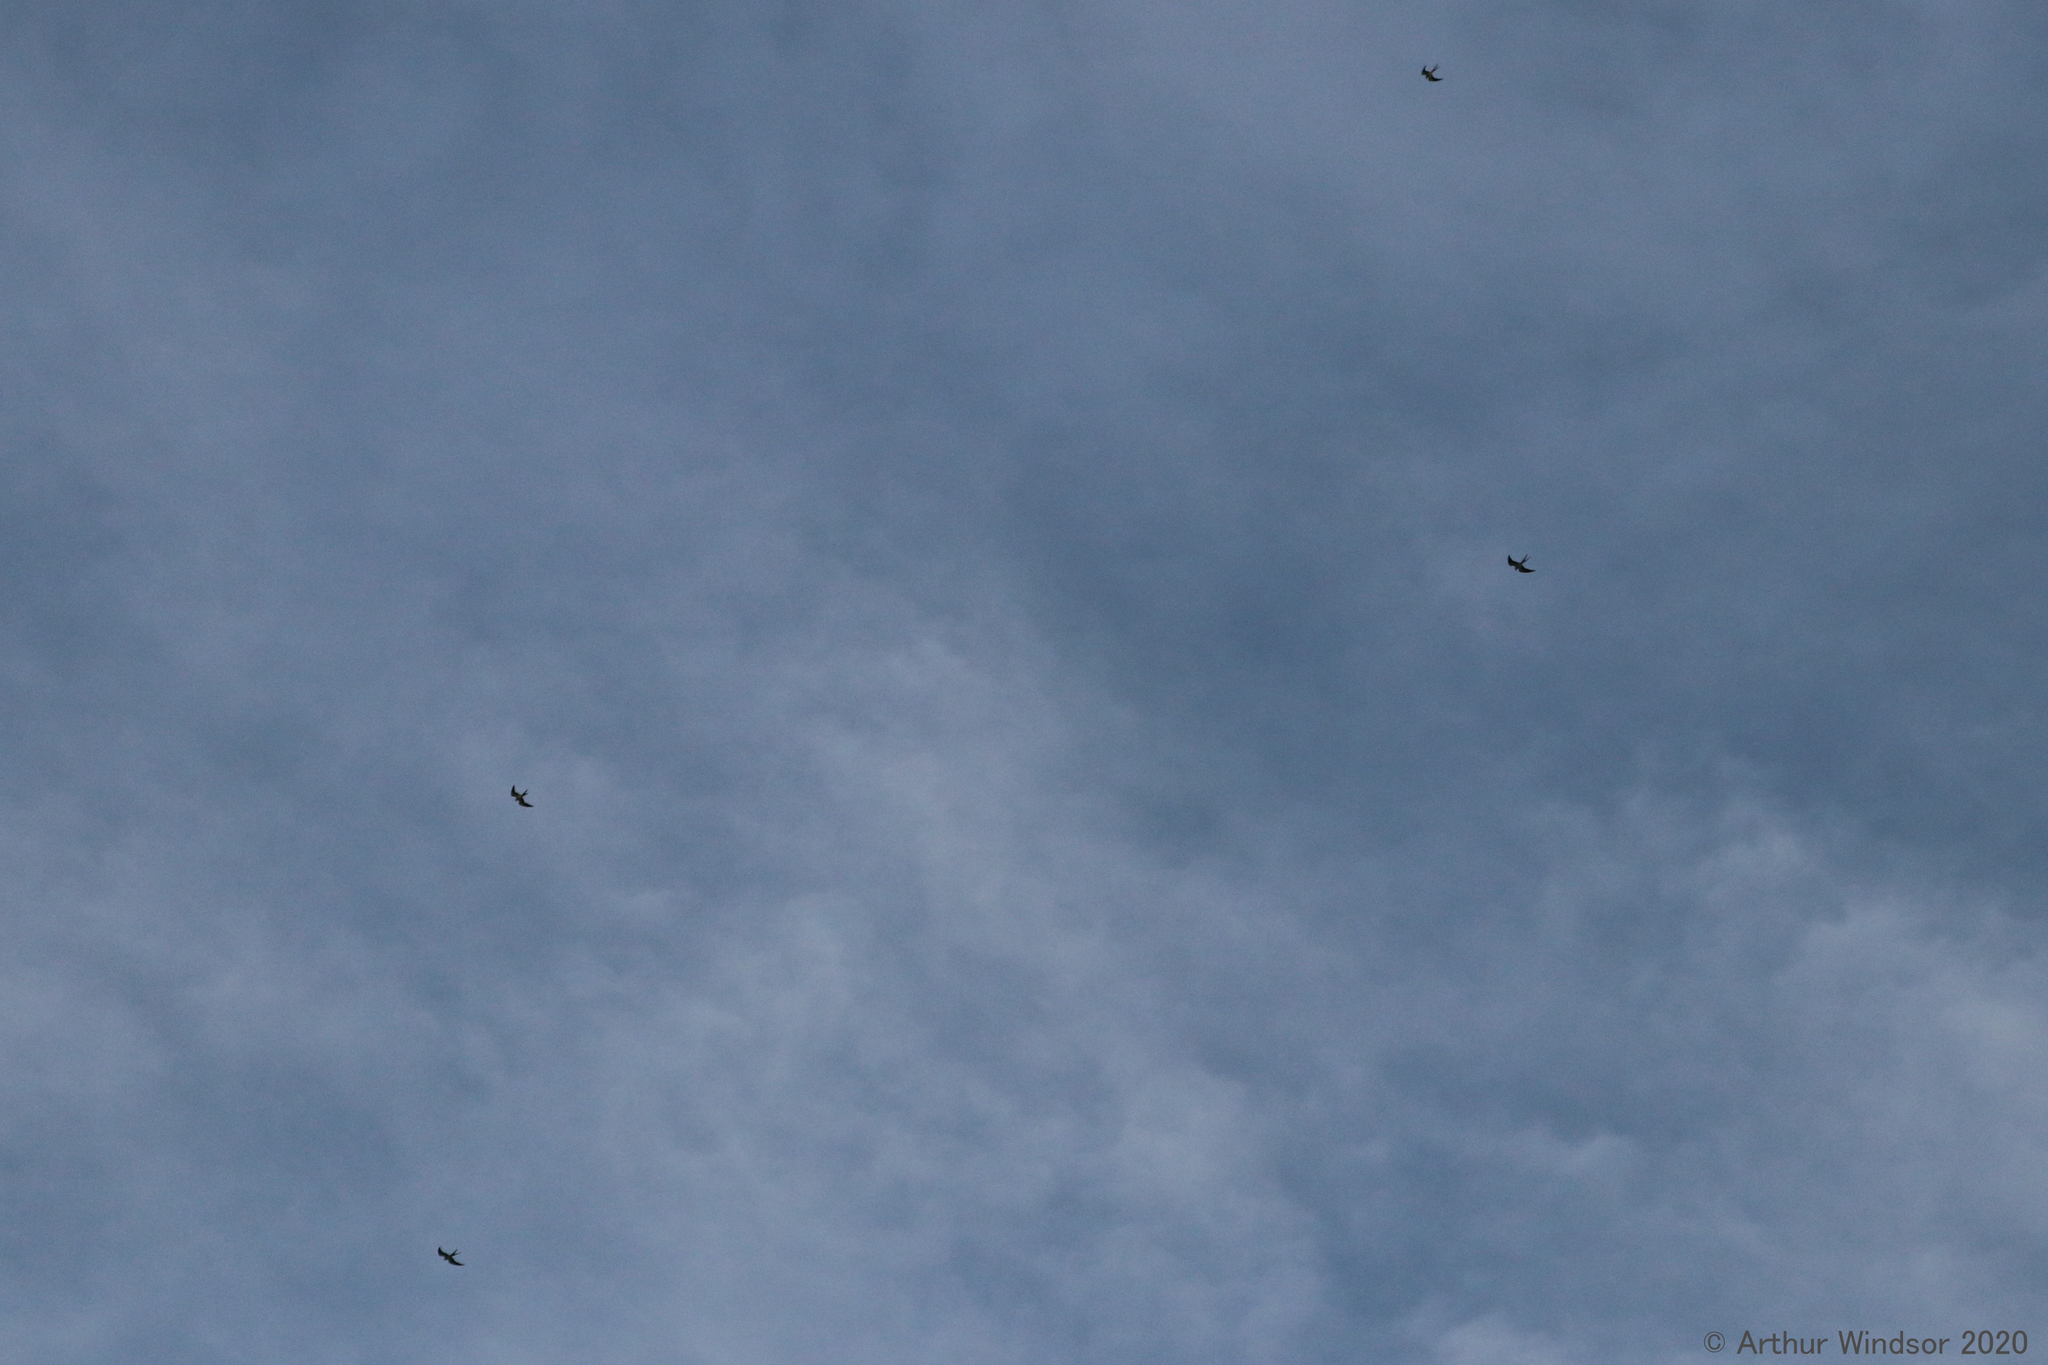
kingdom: Animalia
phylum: Chordata
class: Aves
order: Accipitriformes
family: Accipitridae
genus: Elanoides
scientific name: Elanoides forficatus
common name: Swallow-tailed kite
